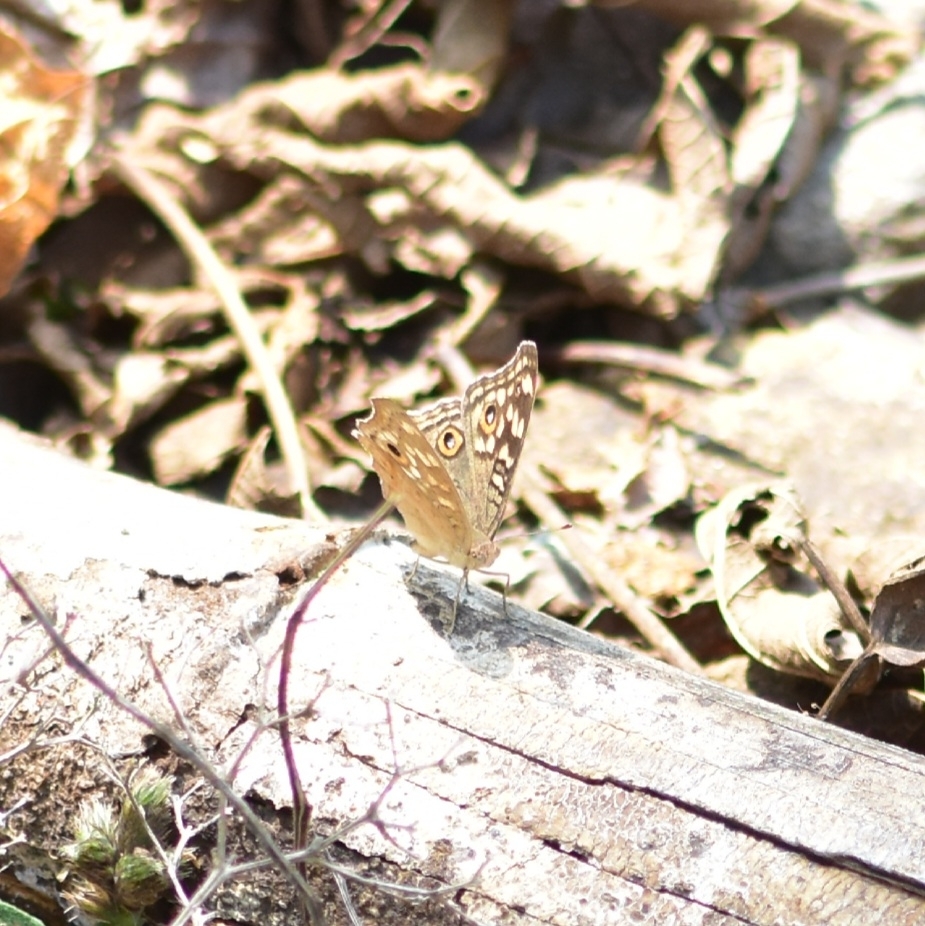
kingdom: Animalia
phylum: Arthropoda
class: Insecta
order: Lepidoptera
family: Nymphalidae
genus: Junonia
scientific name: Junonia lemonias
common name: Lemon pansy
